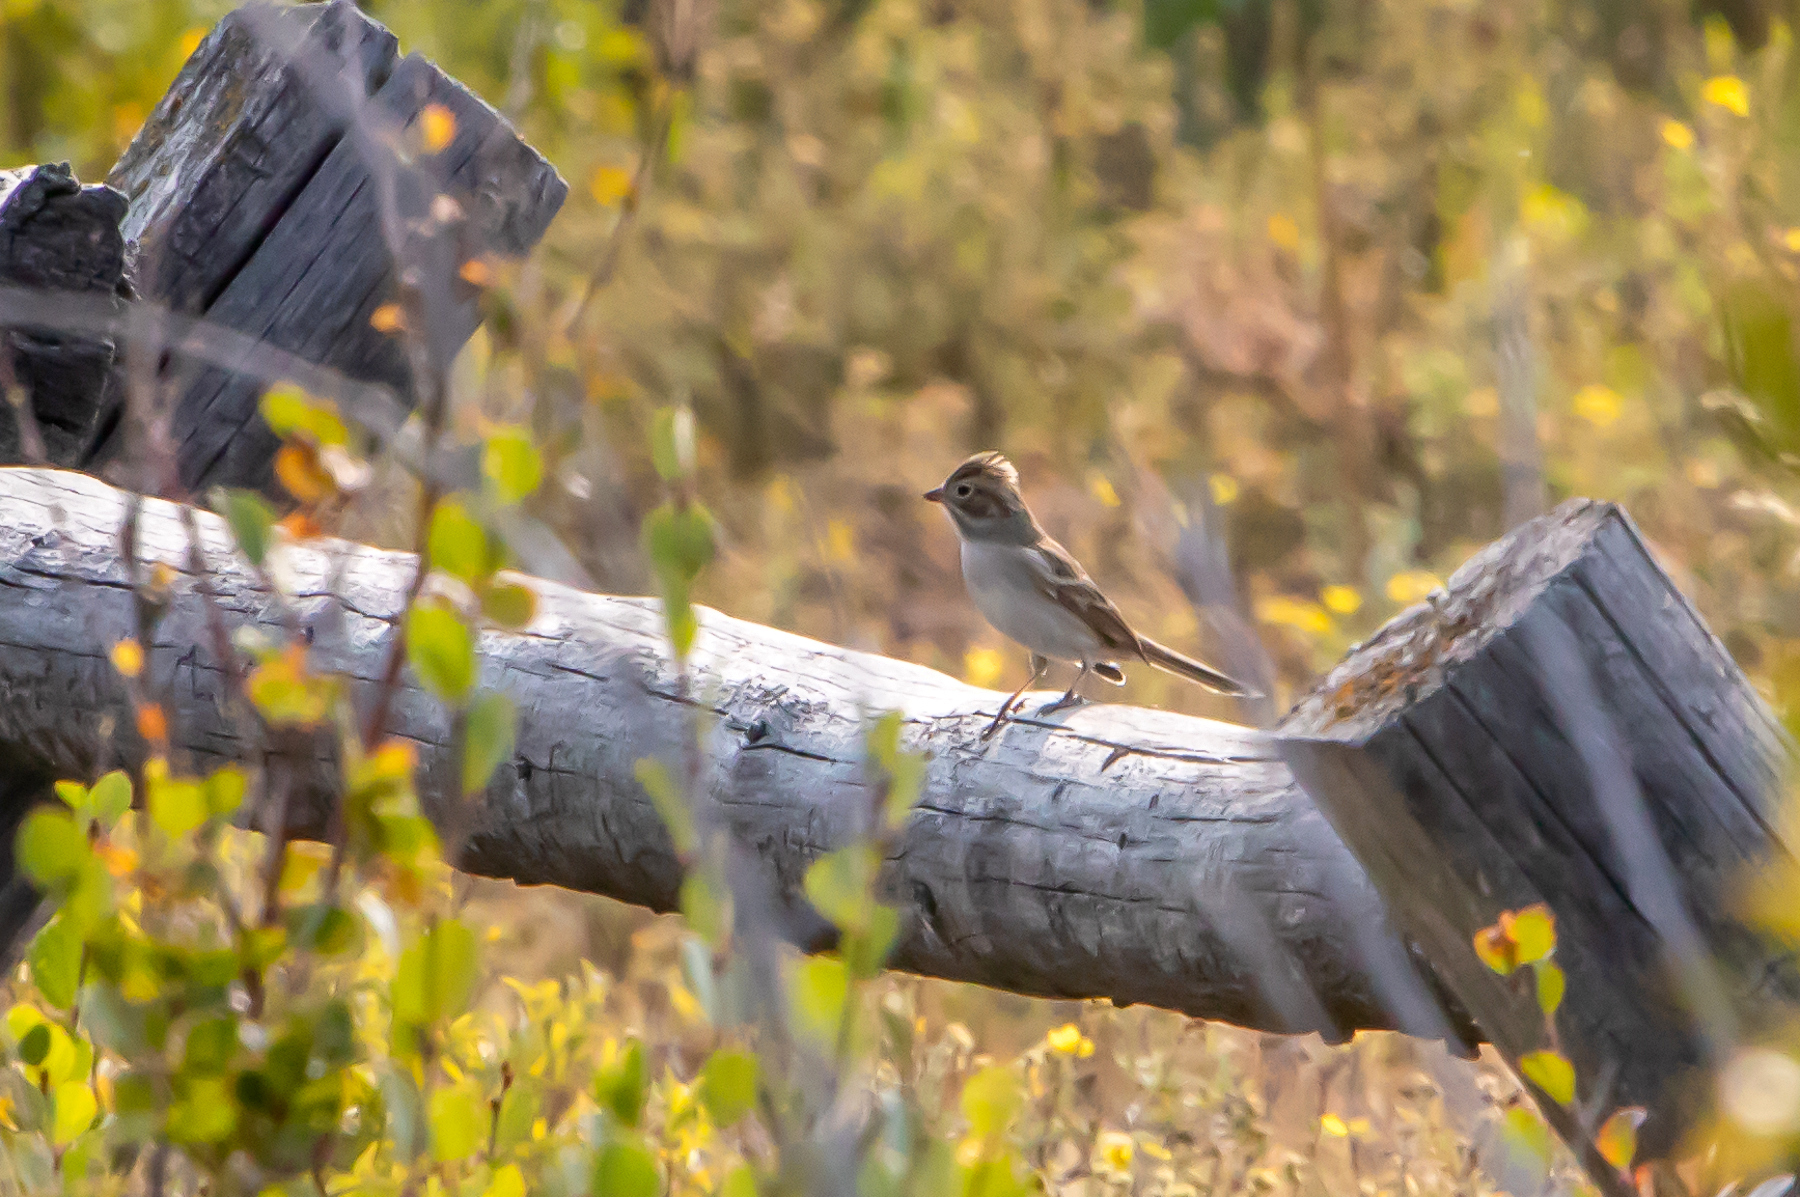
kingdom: Animalia
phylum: Chordata
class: Aves
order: Passeriformes
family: Passerellidae
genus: Spizella
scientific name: Spizella breweri
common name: Brewer's sparrow
